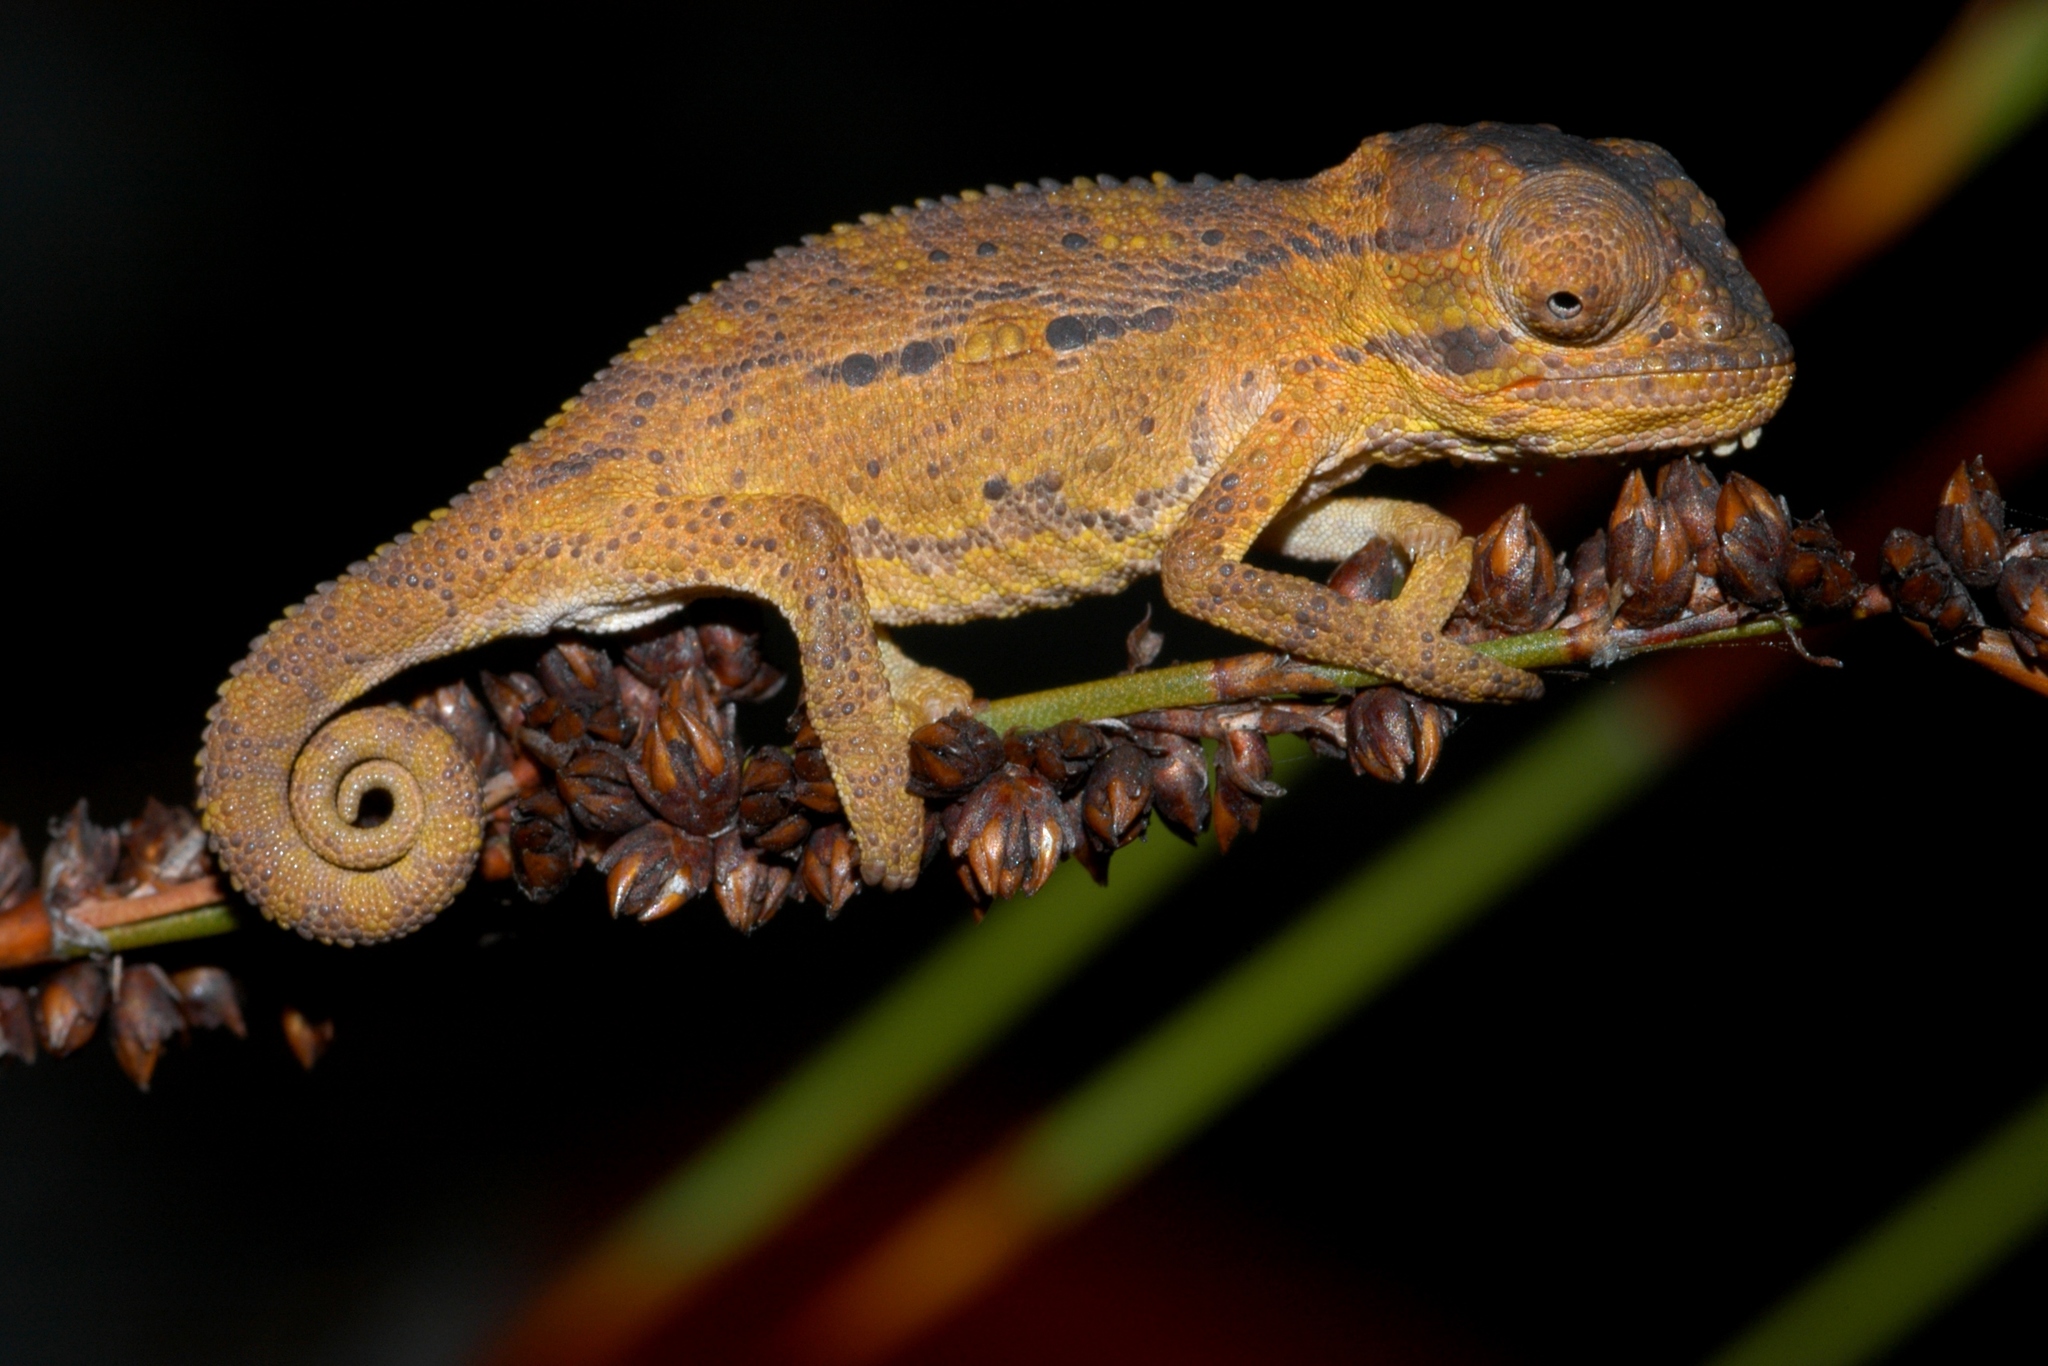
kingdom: Animalia
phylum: Chordata
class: Squamata
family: Chamaeleonidae
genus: Bradypodion
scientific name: Bradypodion pumilum
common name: Cape dwarf chameleon
